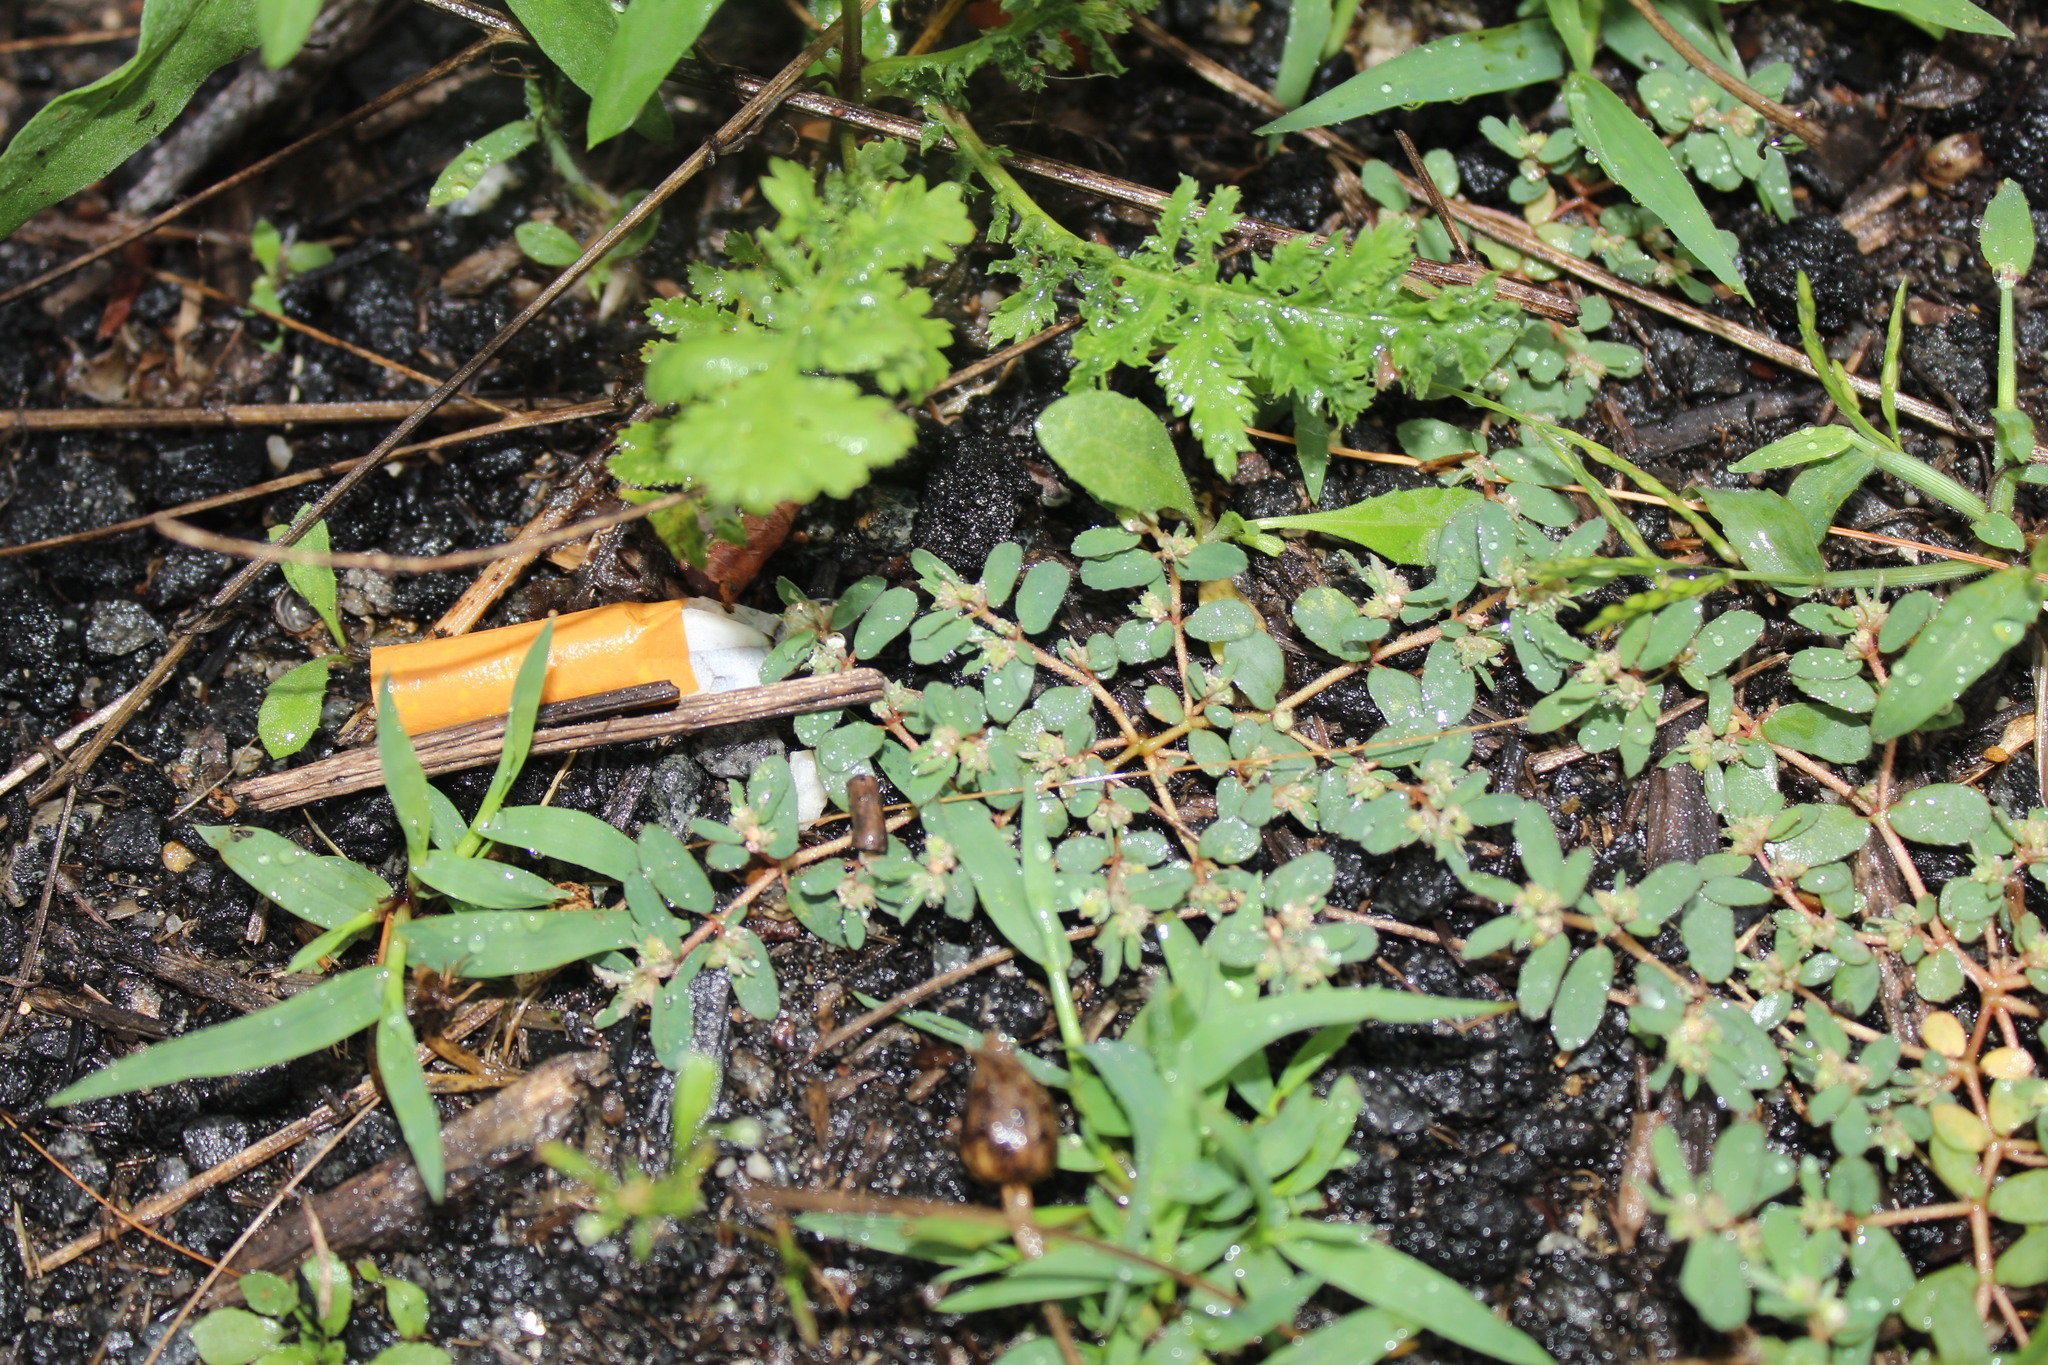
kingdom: Plantae
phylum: Tracheophyta
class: Magnoliopsida
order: Malpighiales
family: Euphorbiaceae
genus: Euphorbia
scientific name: Euphorbia maculata
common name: Spotted spurge
